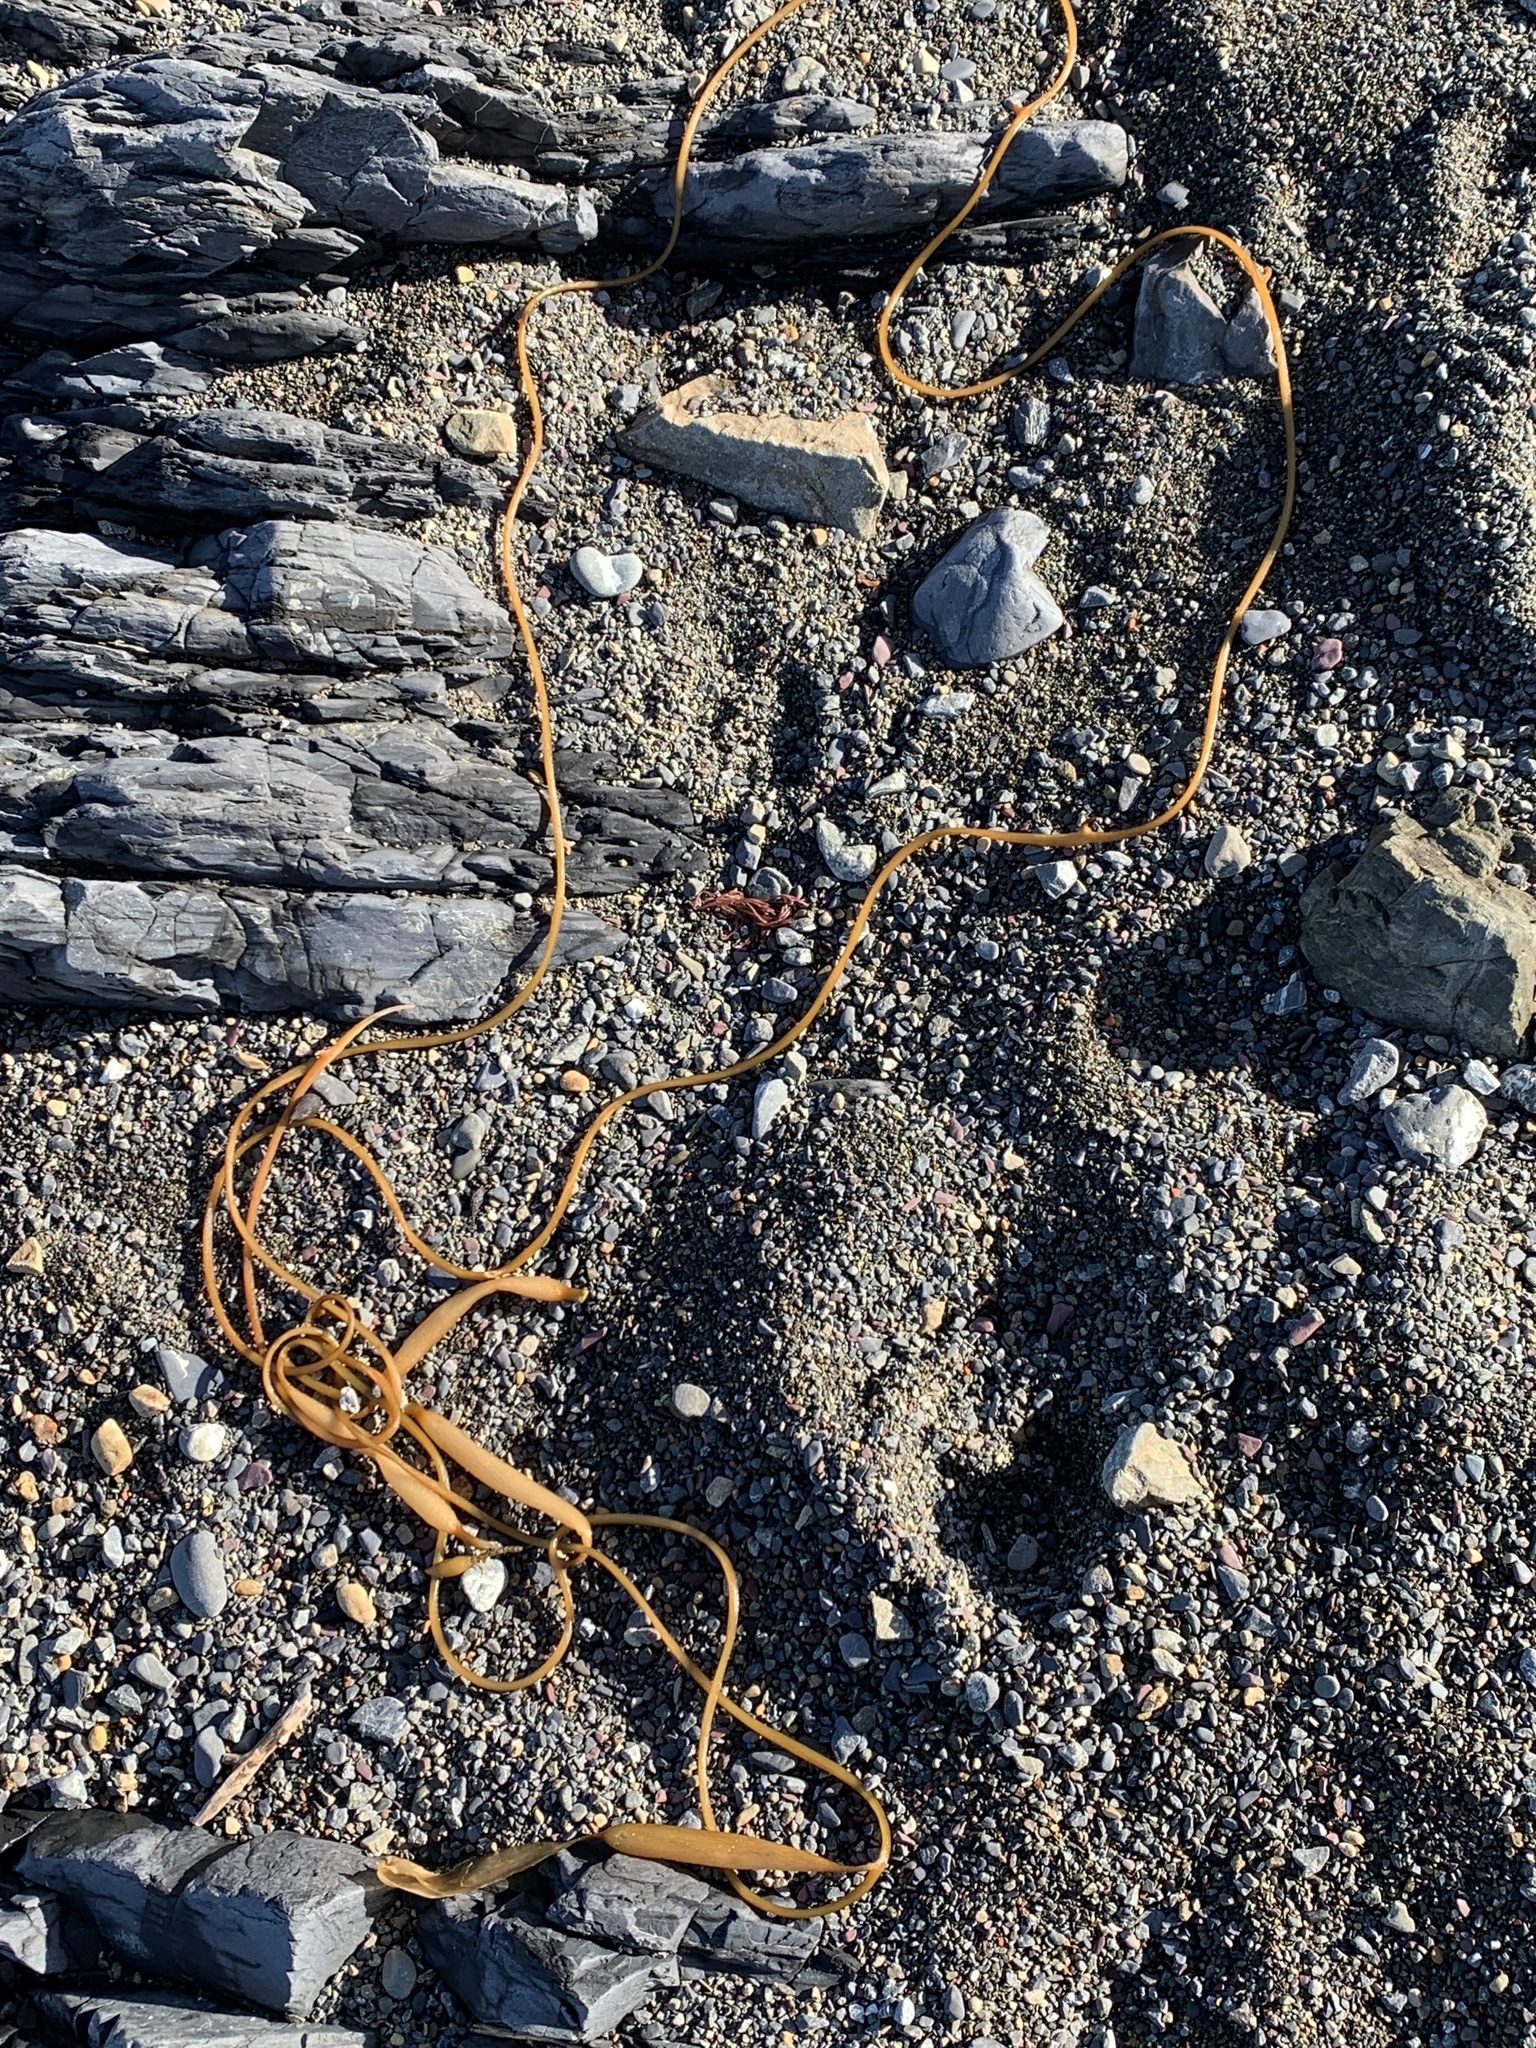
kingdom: Chromista
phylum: Ochrophyta
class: Phaeophyceae
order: Laminariales
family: Laminariaceae
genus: Macrocystis
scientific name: Macrocystis pyrifera
